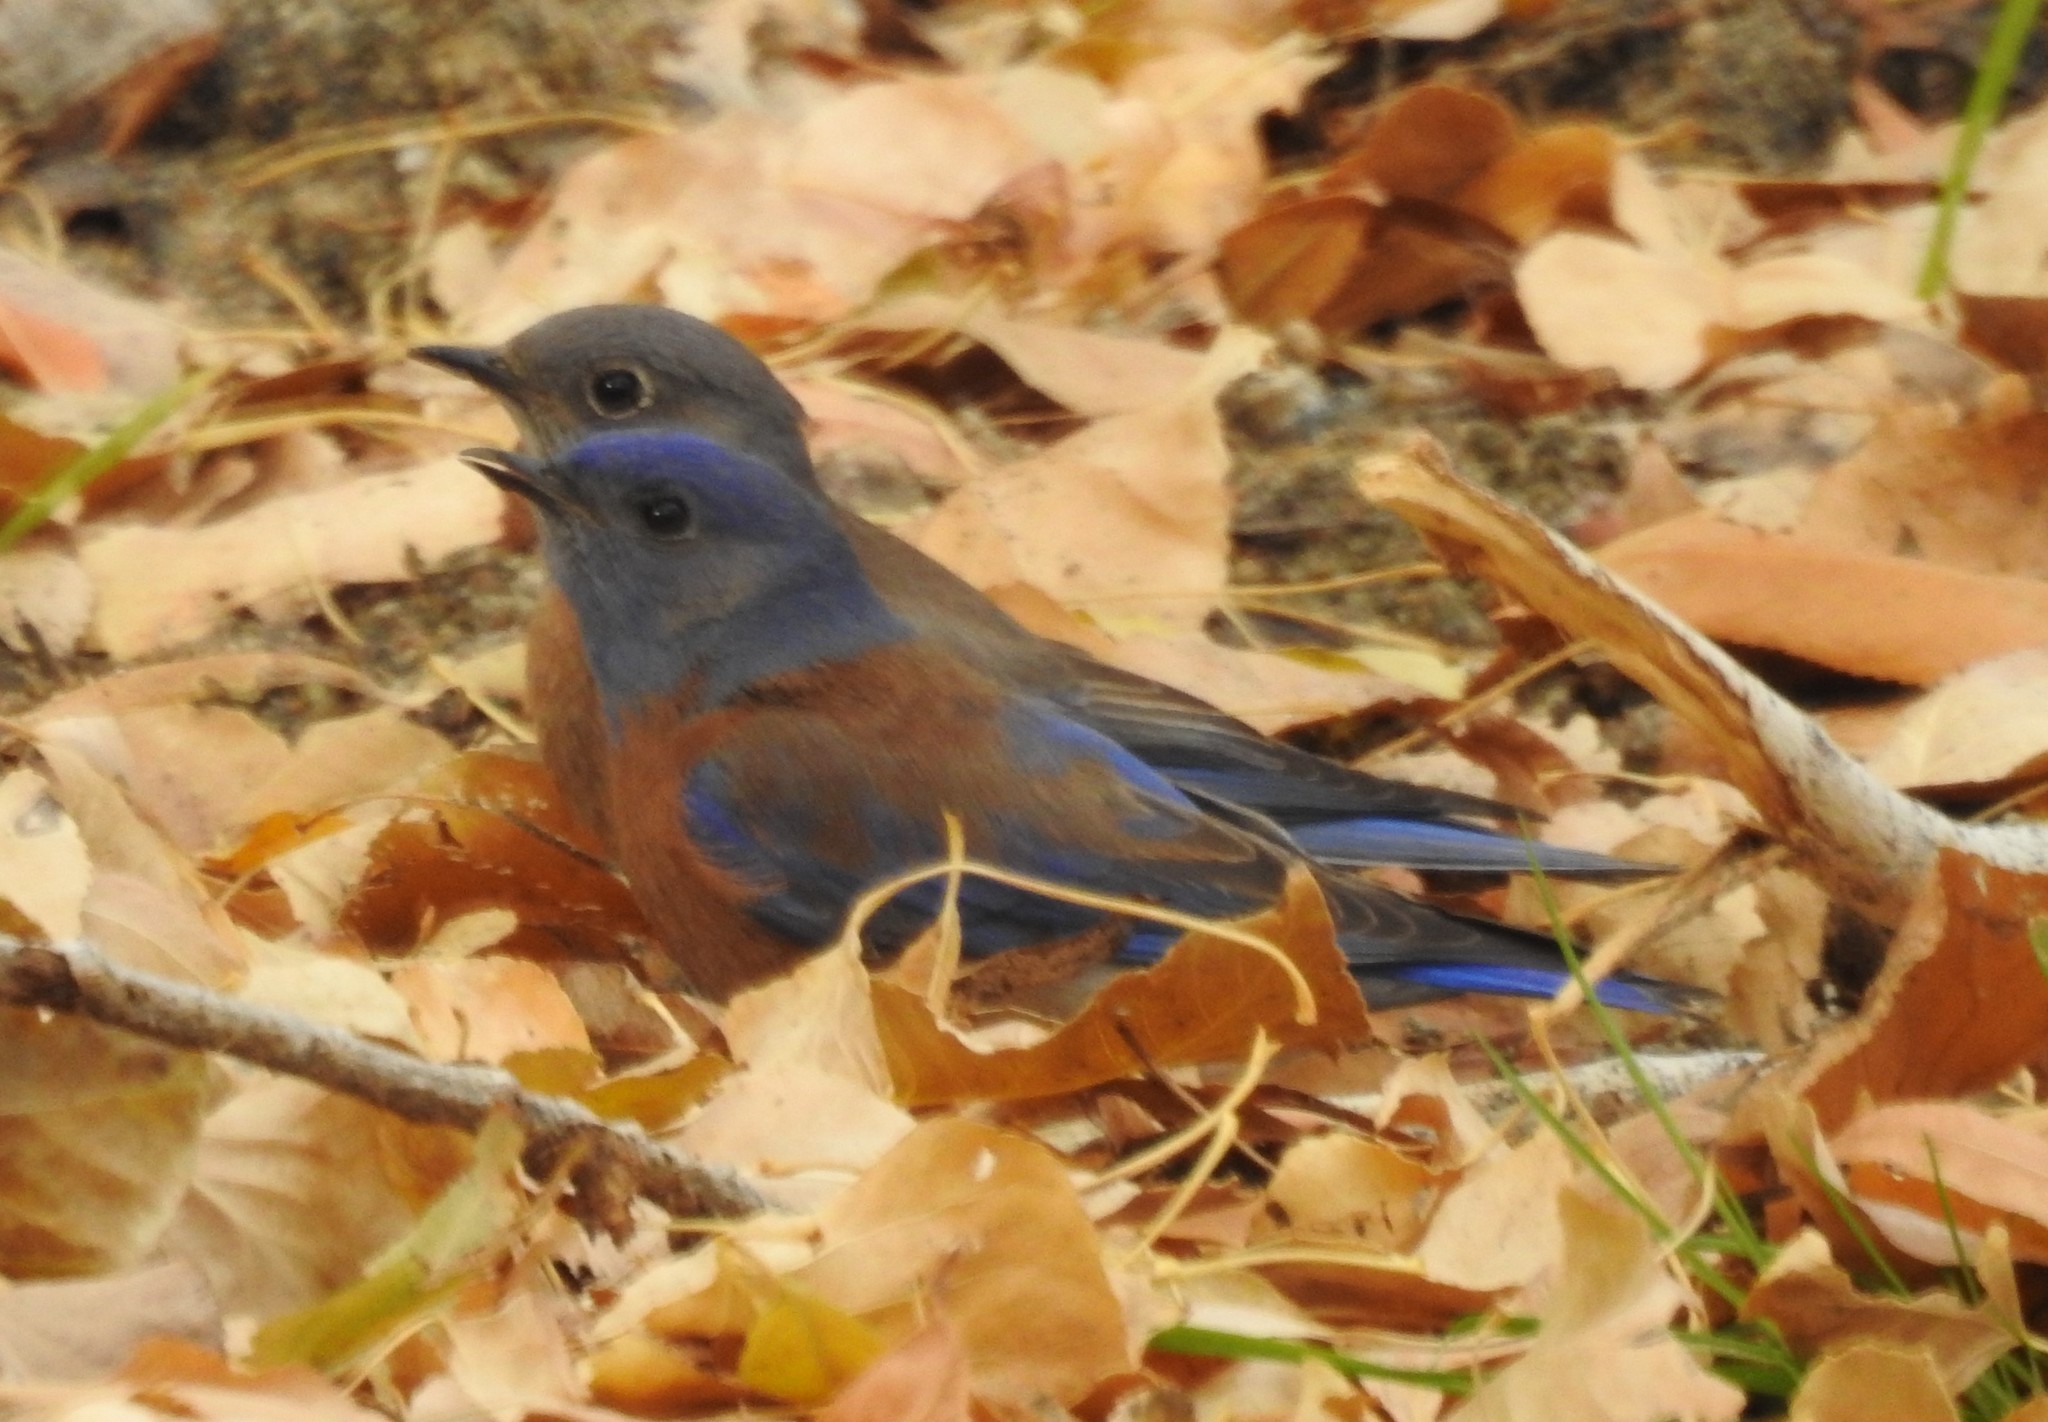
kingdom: Animalia
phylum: Chordata
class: Aves
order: Passeriformes
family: Turdidae
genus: Sialia
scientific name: Sialia mexicana
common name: Western bluebird
